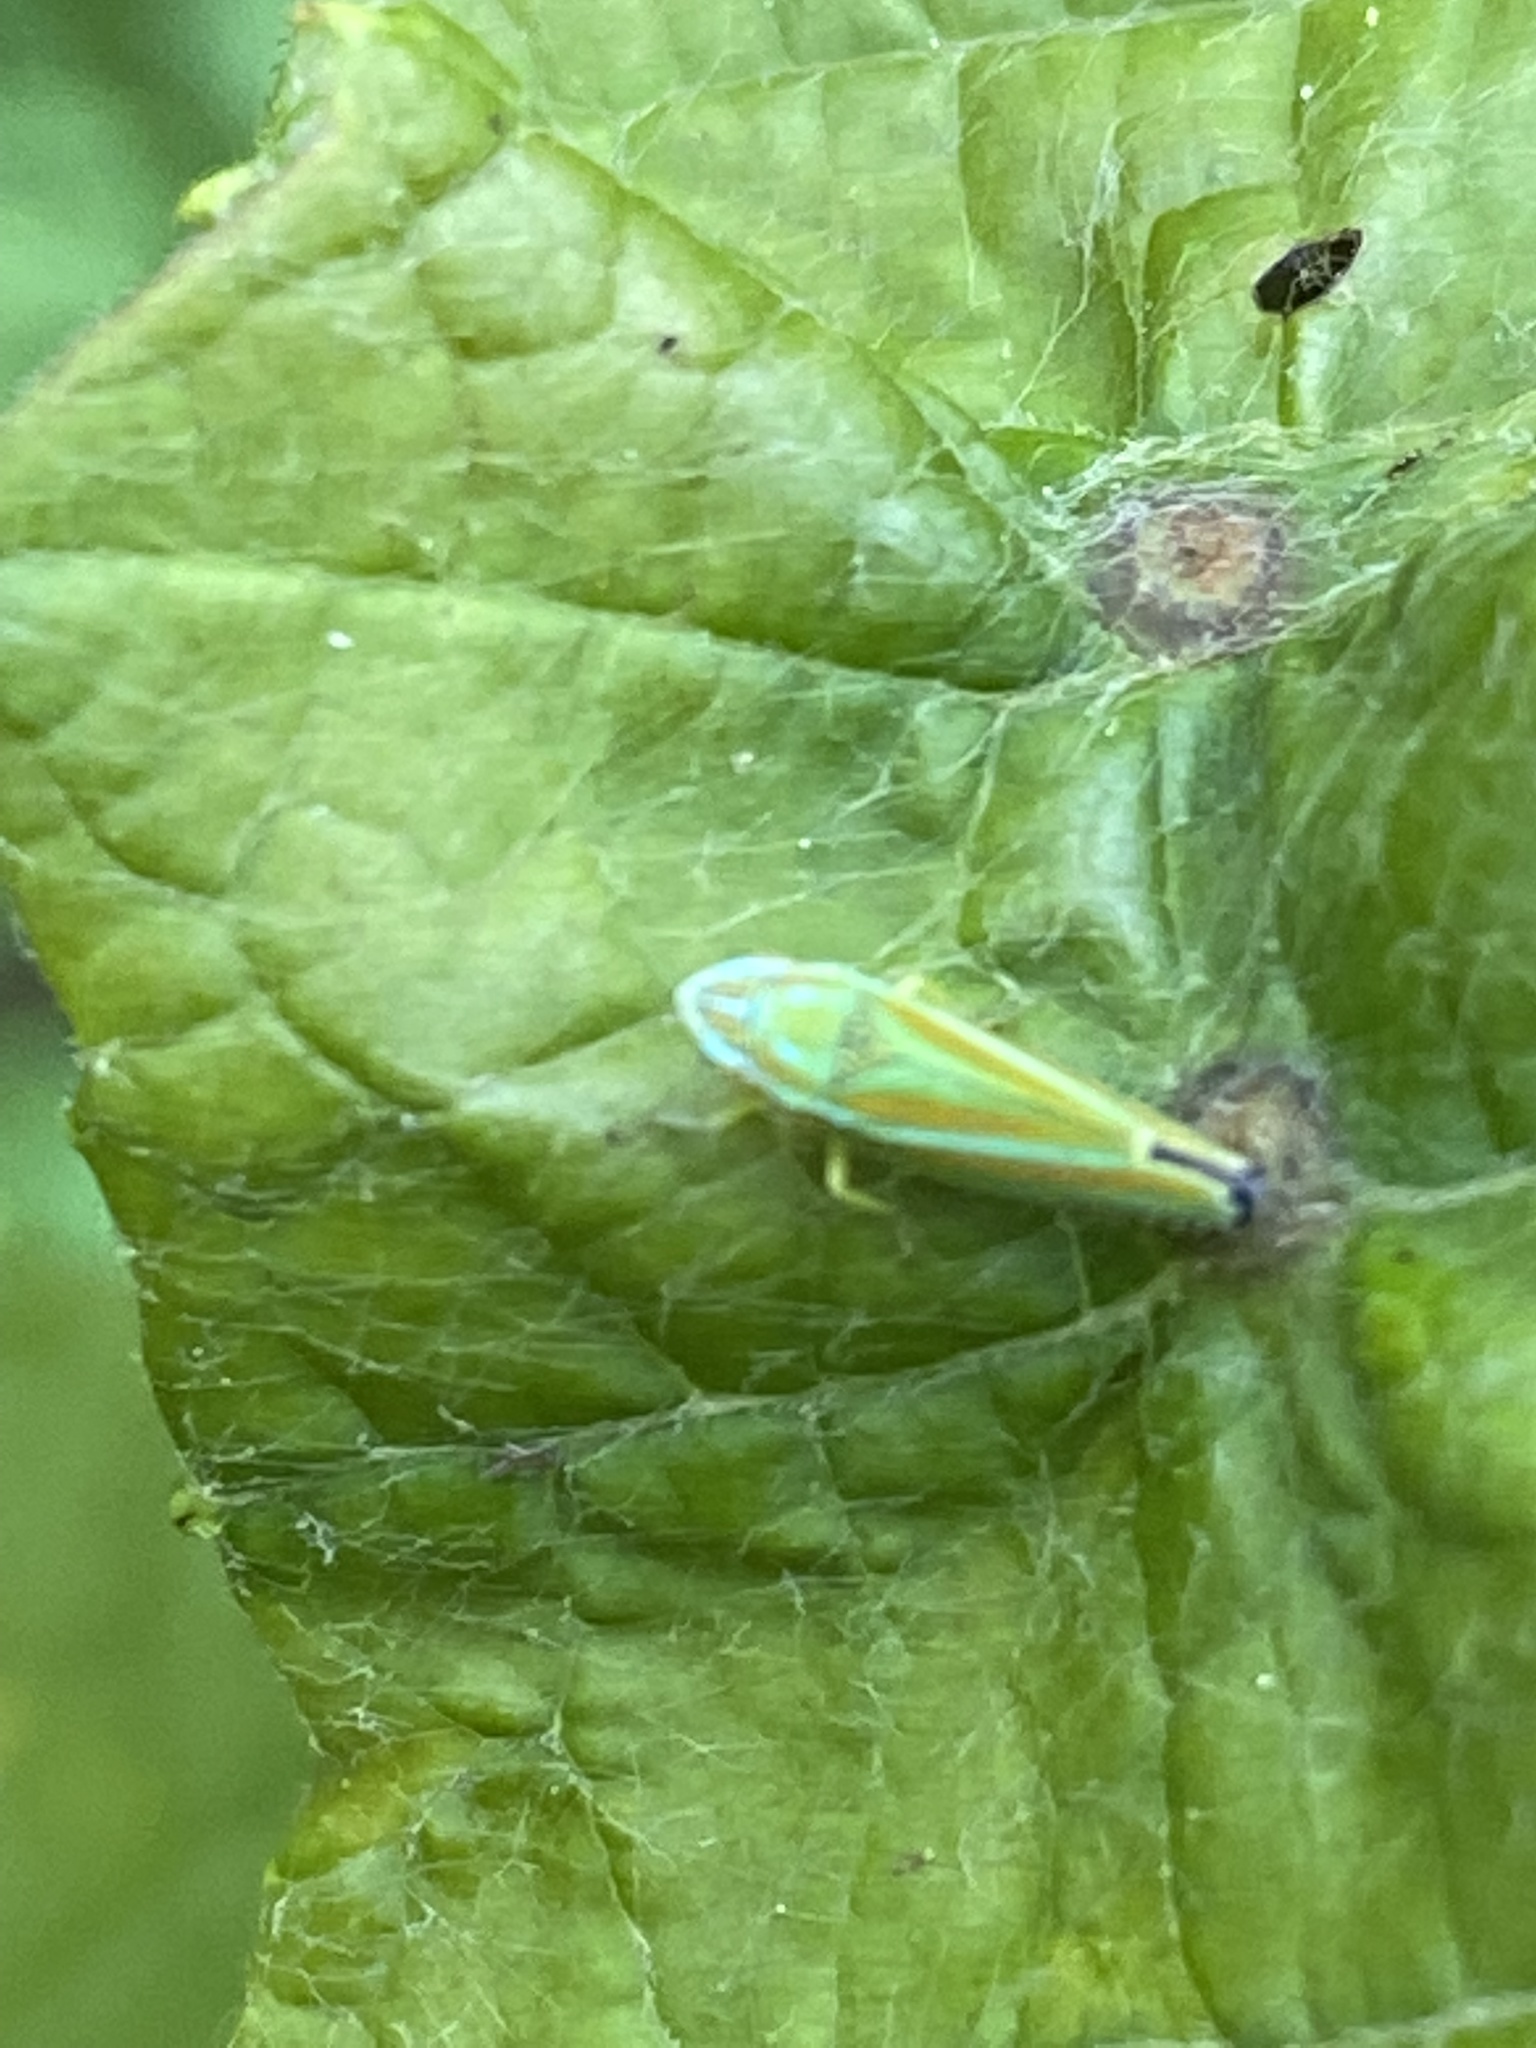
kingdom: Animalia
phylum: Arthropoda
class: Insecta
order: Hemiptera
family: Cicadellidae
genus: Graphocephala
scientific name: Graphocephala versuta
